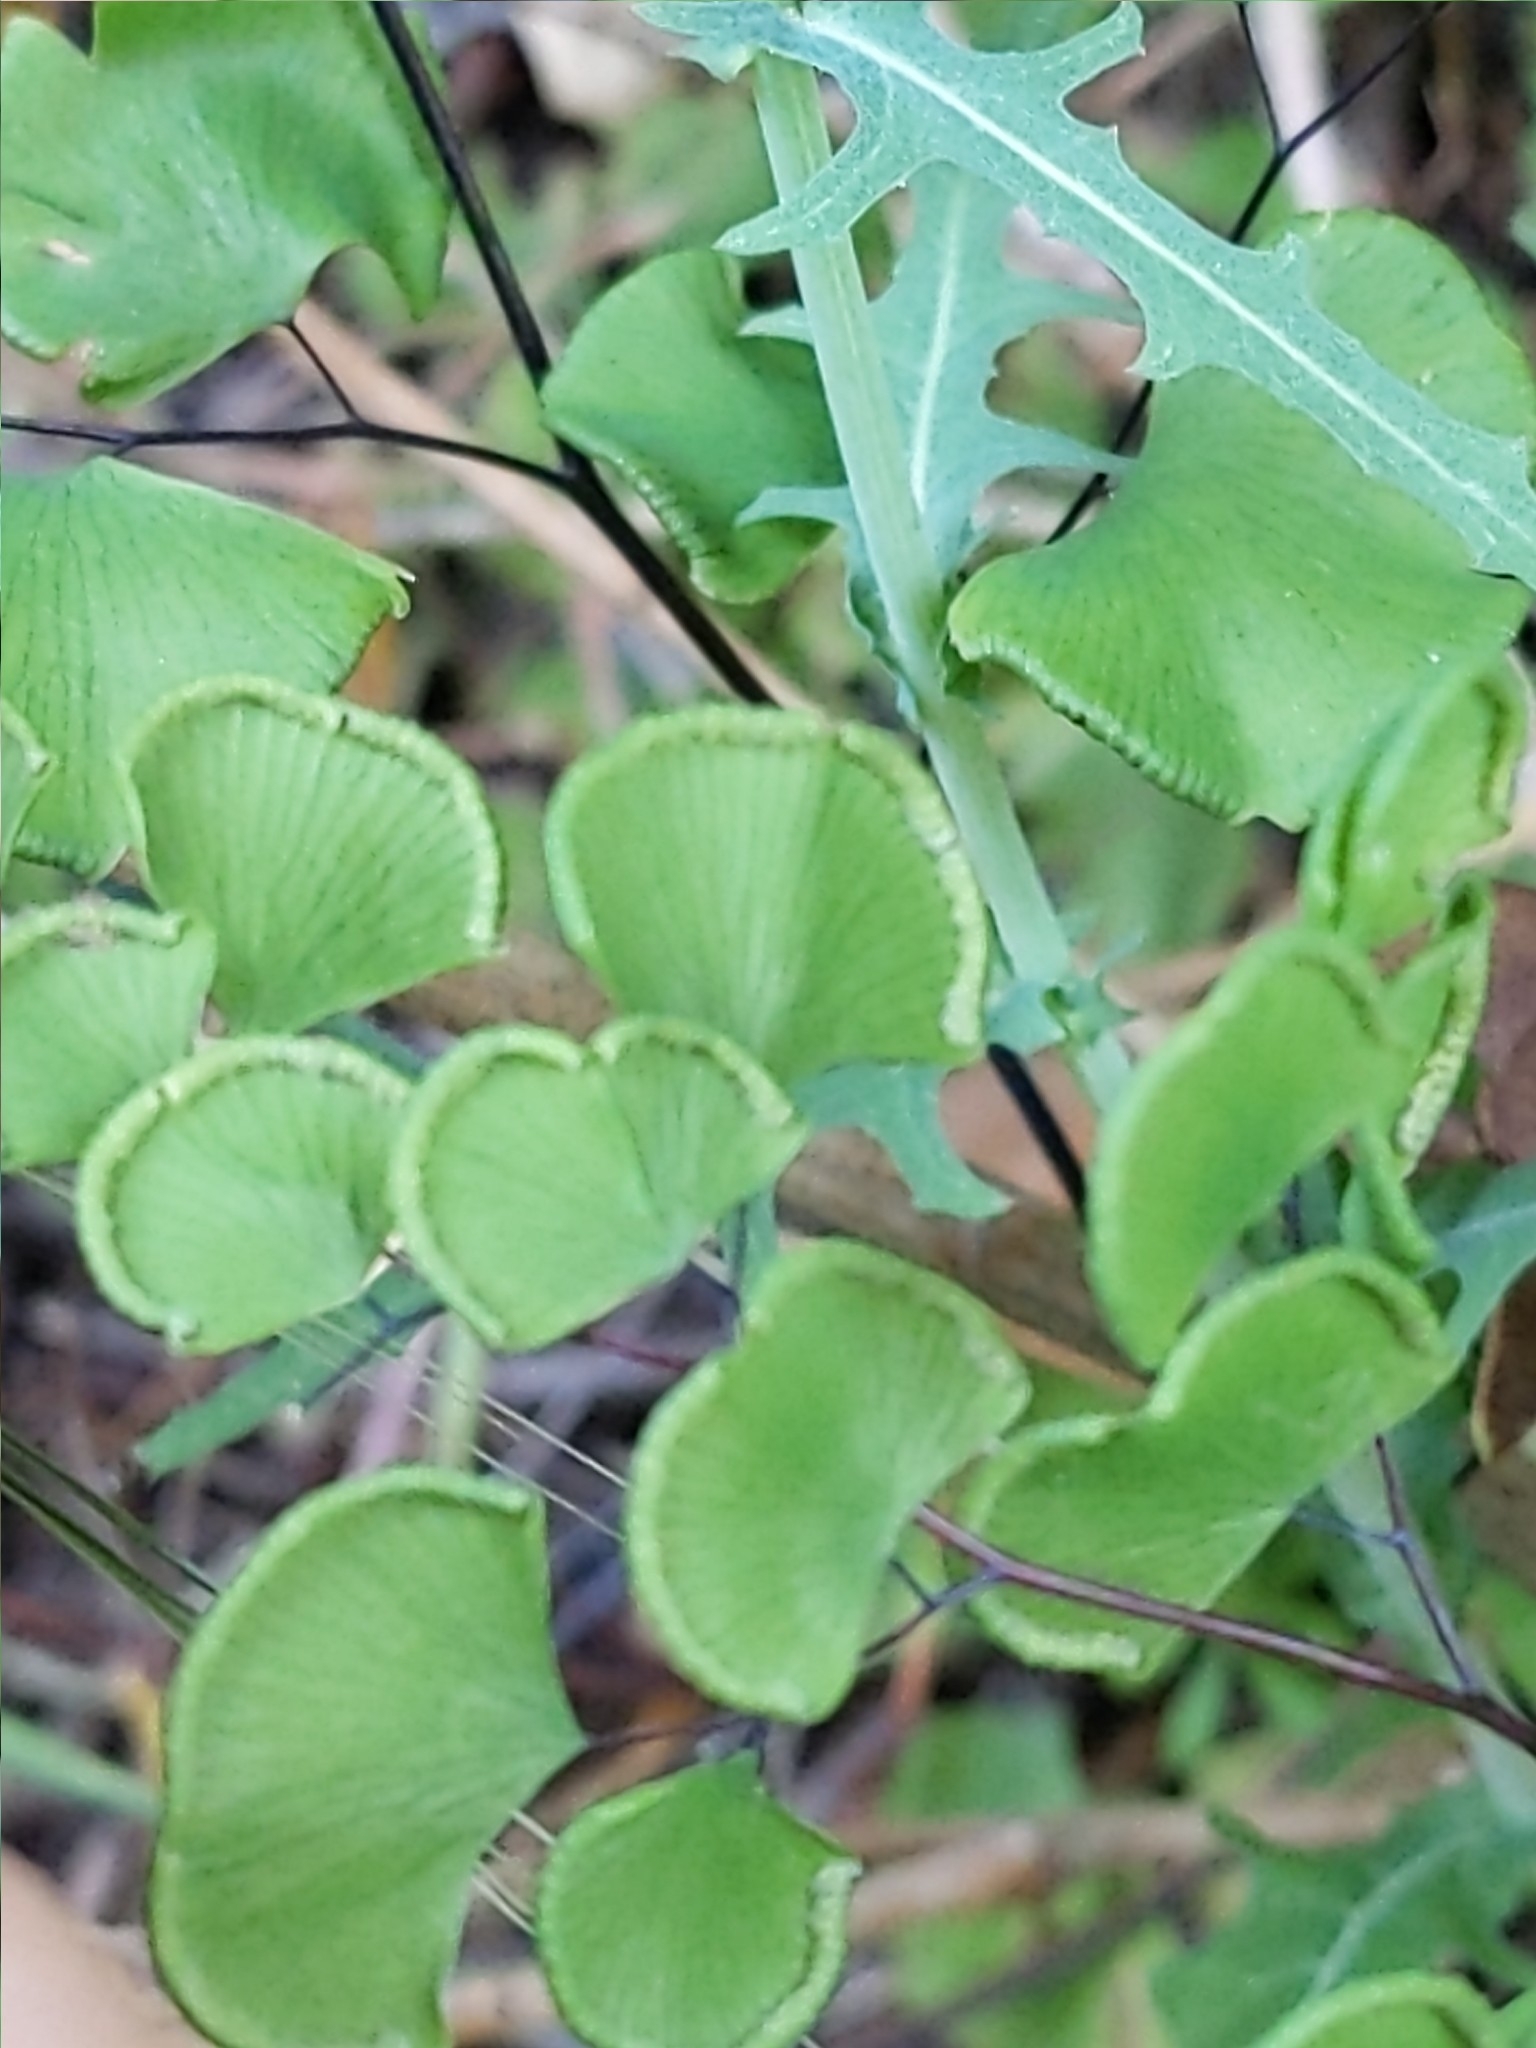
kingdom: Plantae
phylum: Tracheophyta
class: Polypodiopsida
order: Polypodiales
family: Pteridaceae
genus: Adiantum
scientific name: Adiantum jordanii
